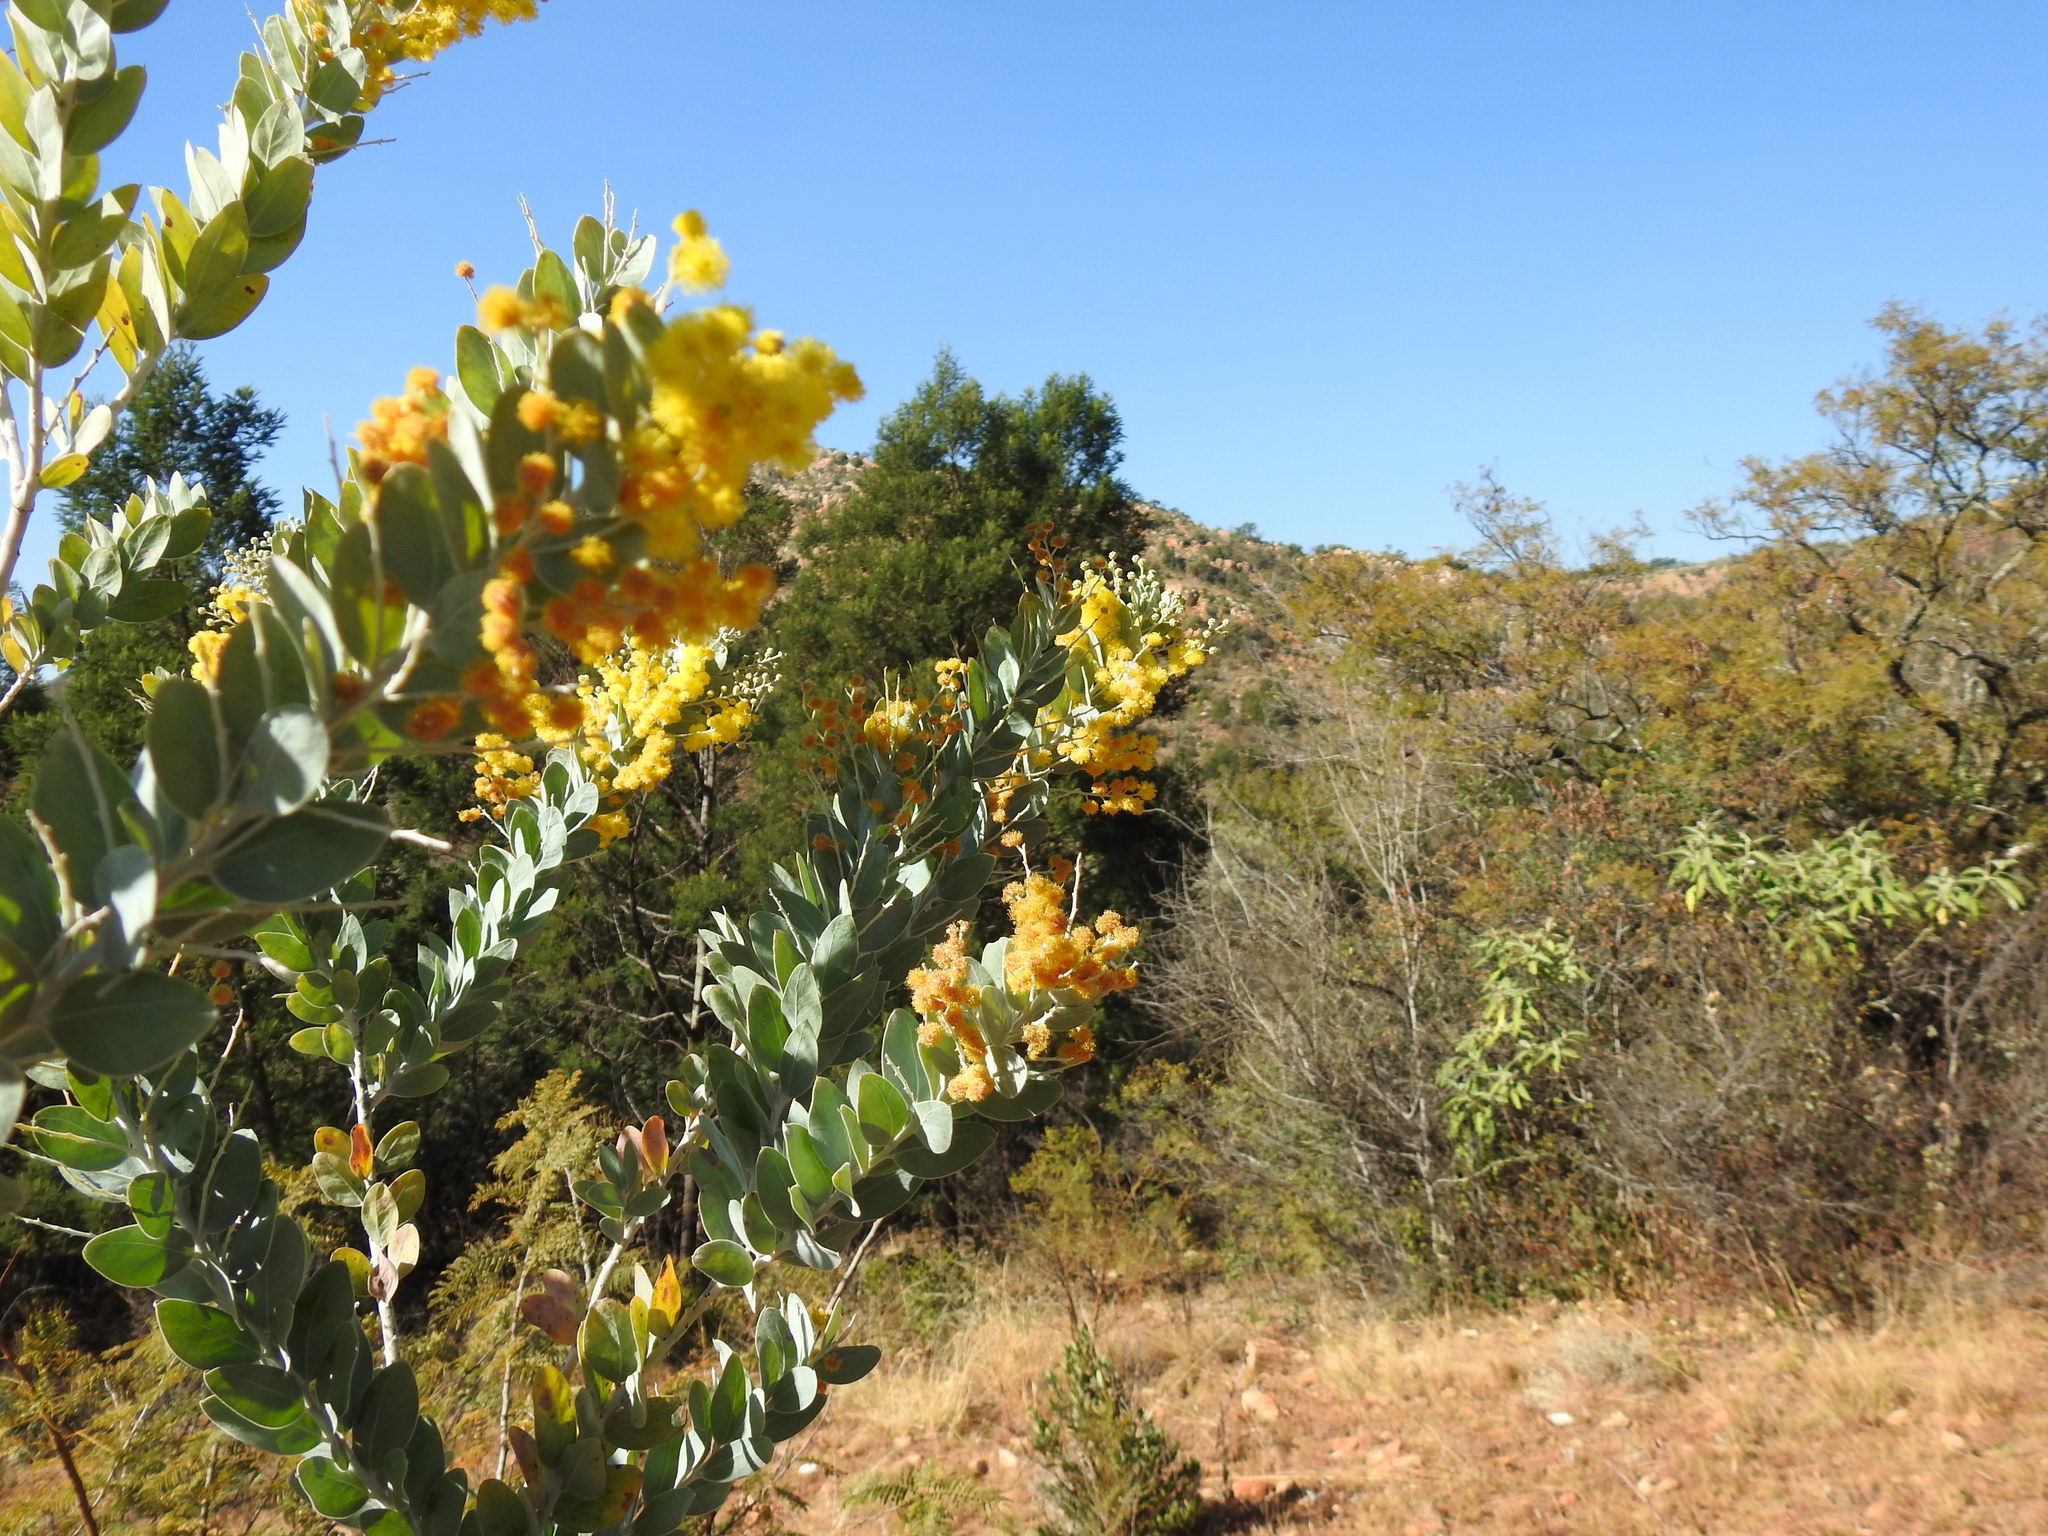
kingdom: Plantae
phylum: Tracheophyta
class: Magnoliopsida
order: Fabales
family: Fabaceae
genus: Acacia
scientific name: Acacia podalyriifolia
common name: Pearl wattle
